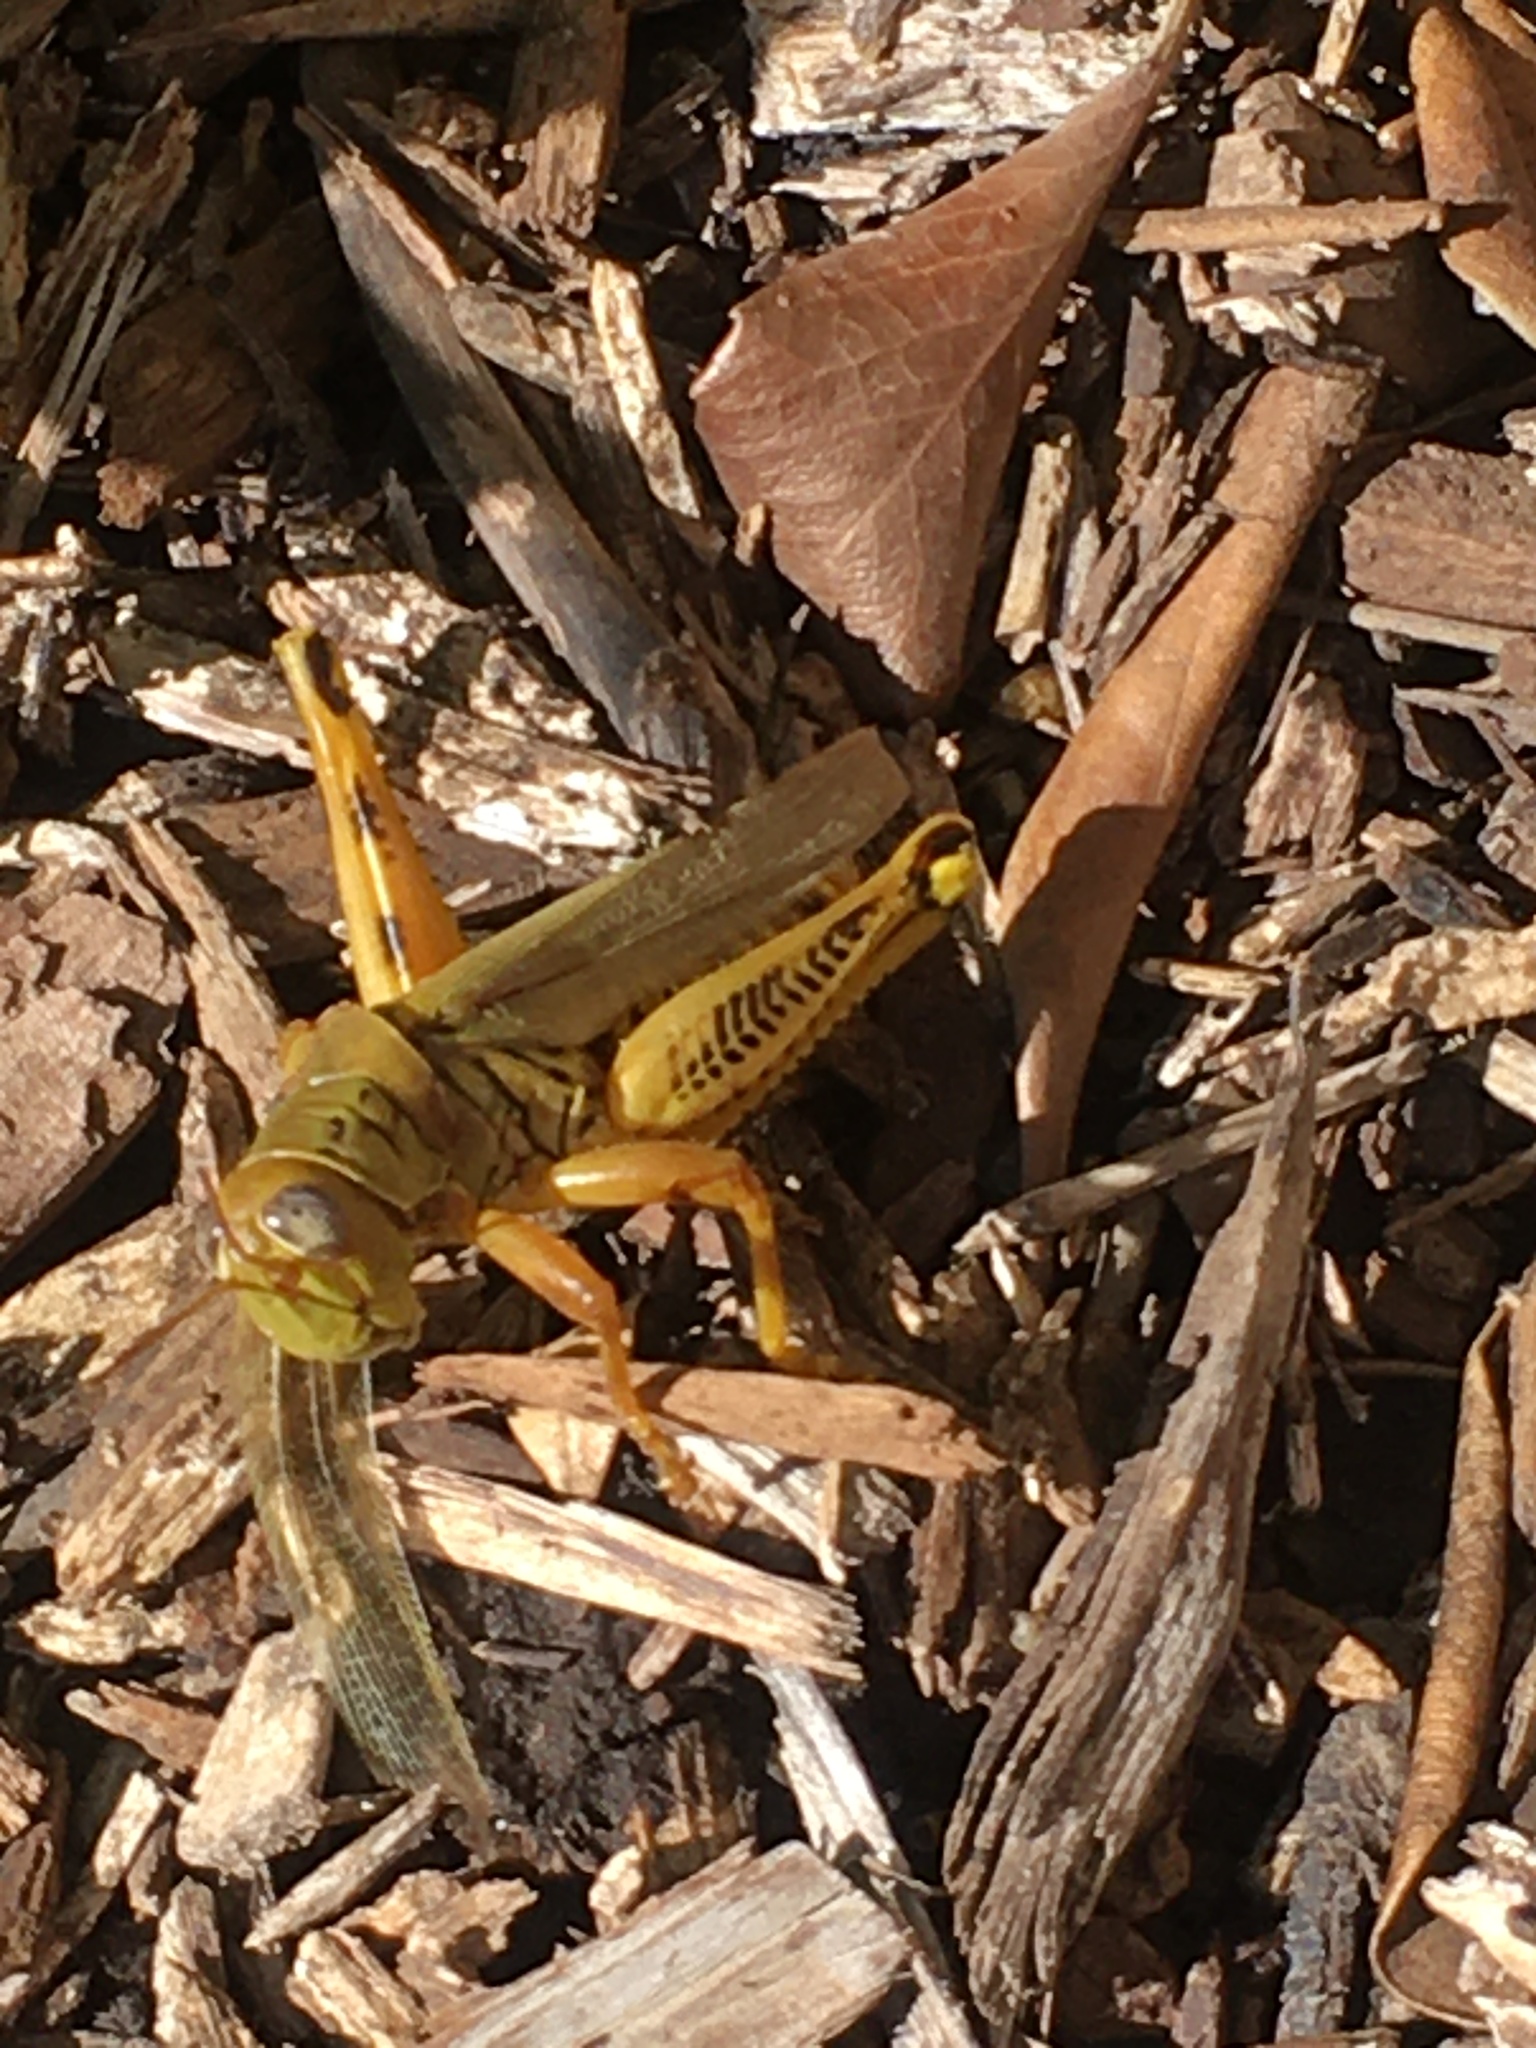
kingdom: Animalia
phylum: Arthropoda
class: Insecta
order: Orthoptera
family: Acrididae
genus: Melanoplus
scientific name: Melanoplus differentialis
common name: Differential grasshopper
